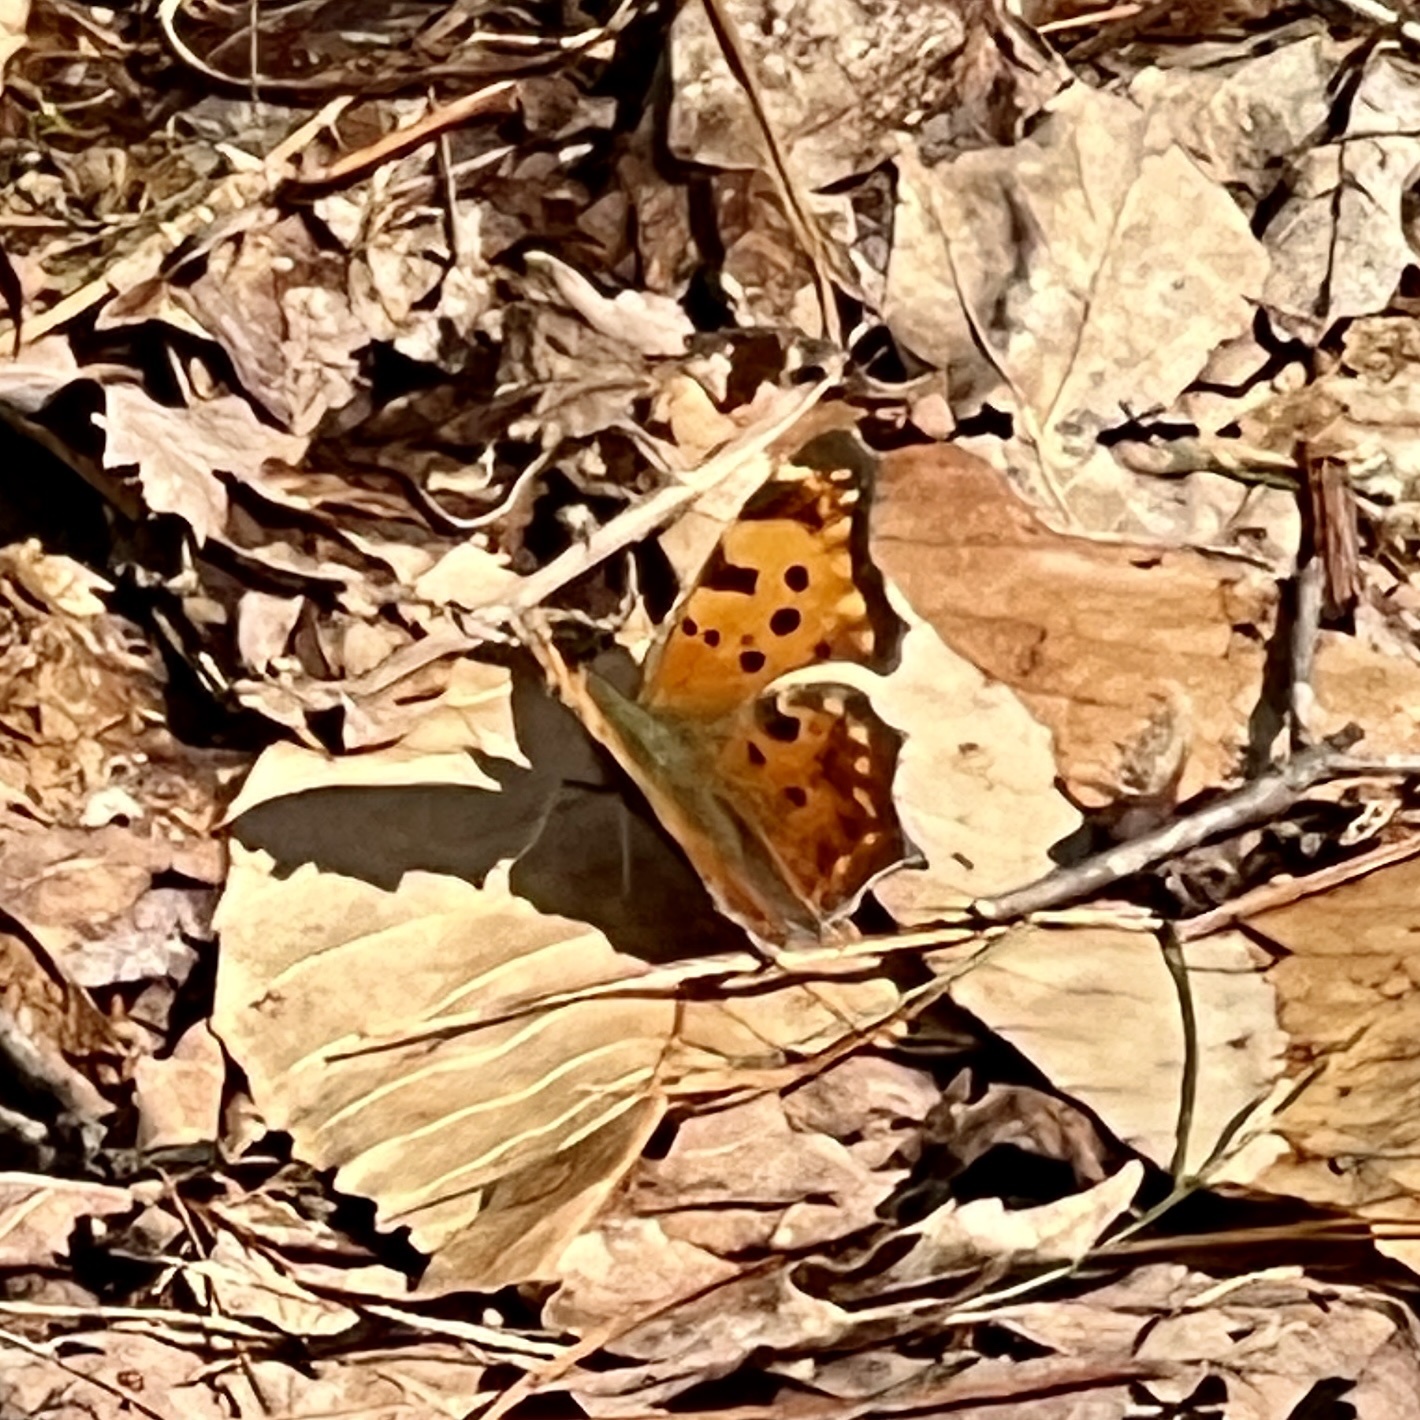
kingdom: Animalia
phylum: Arthropoda
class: Insecta
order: Lepidoptera
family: Nymphalidae
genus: Polygonia
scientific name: Polygonia comma
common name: Eastern comma
